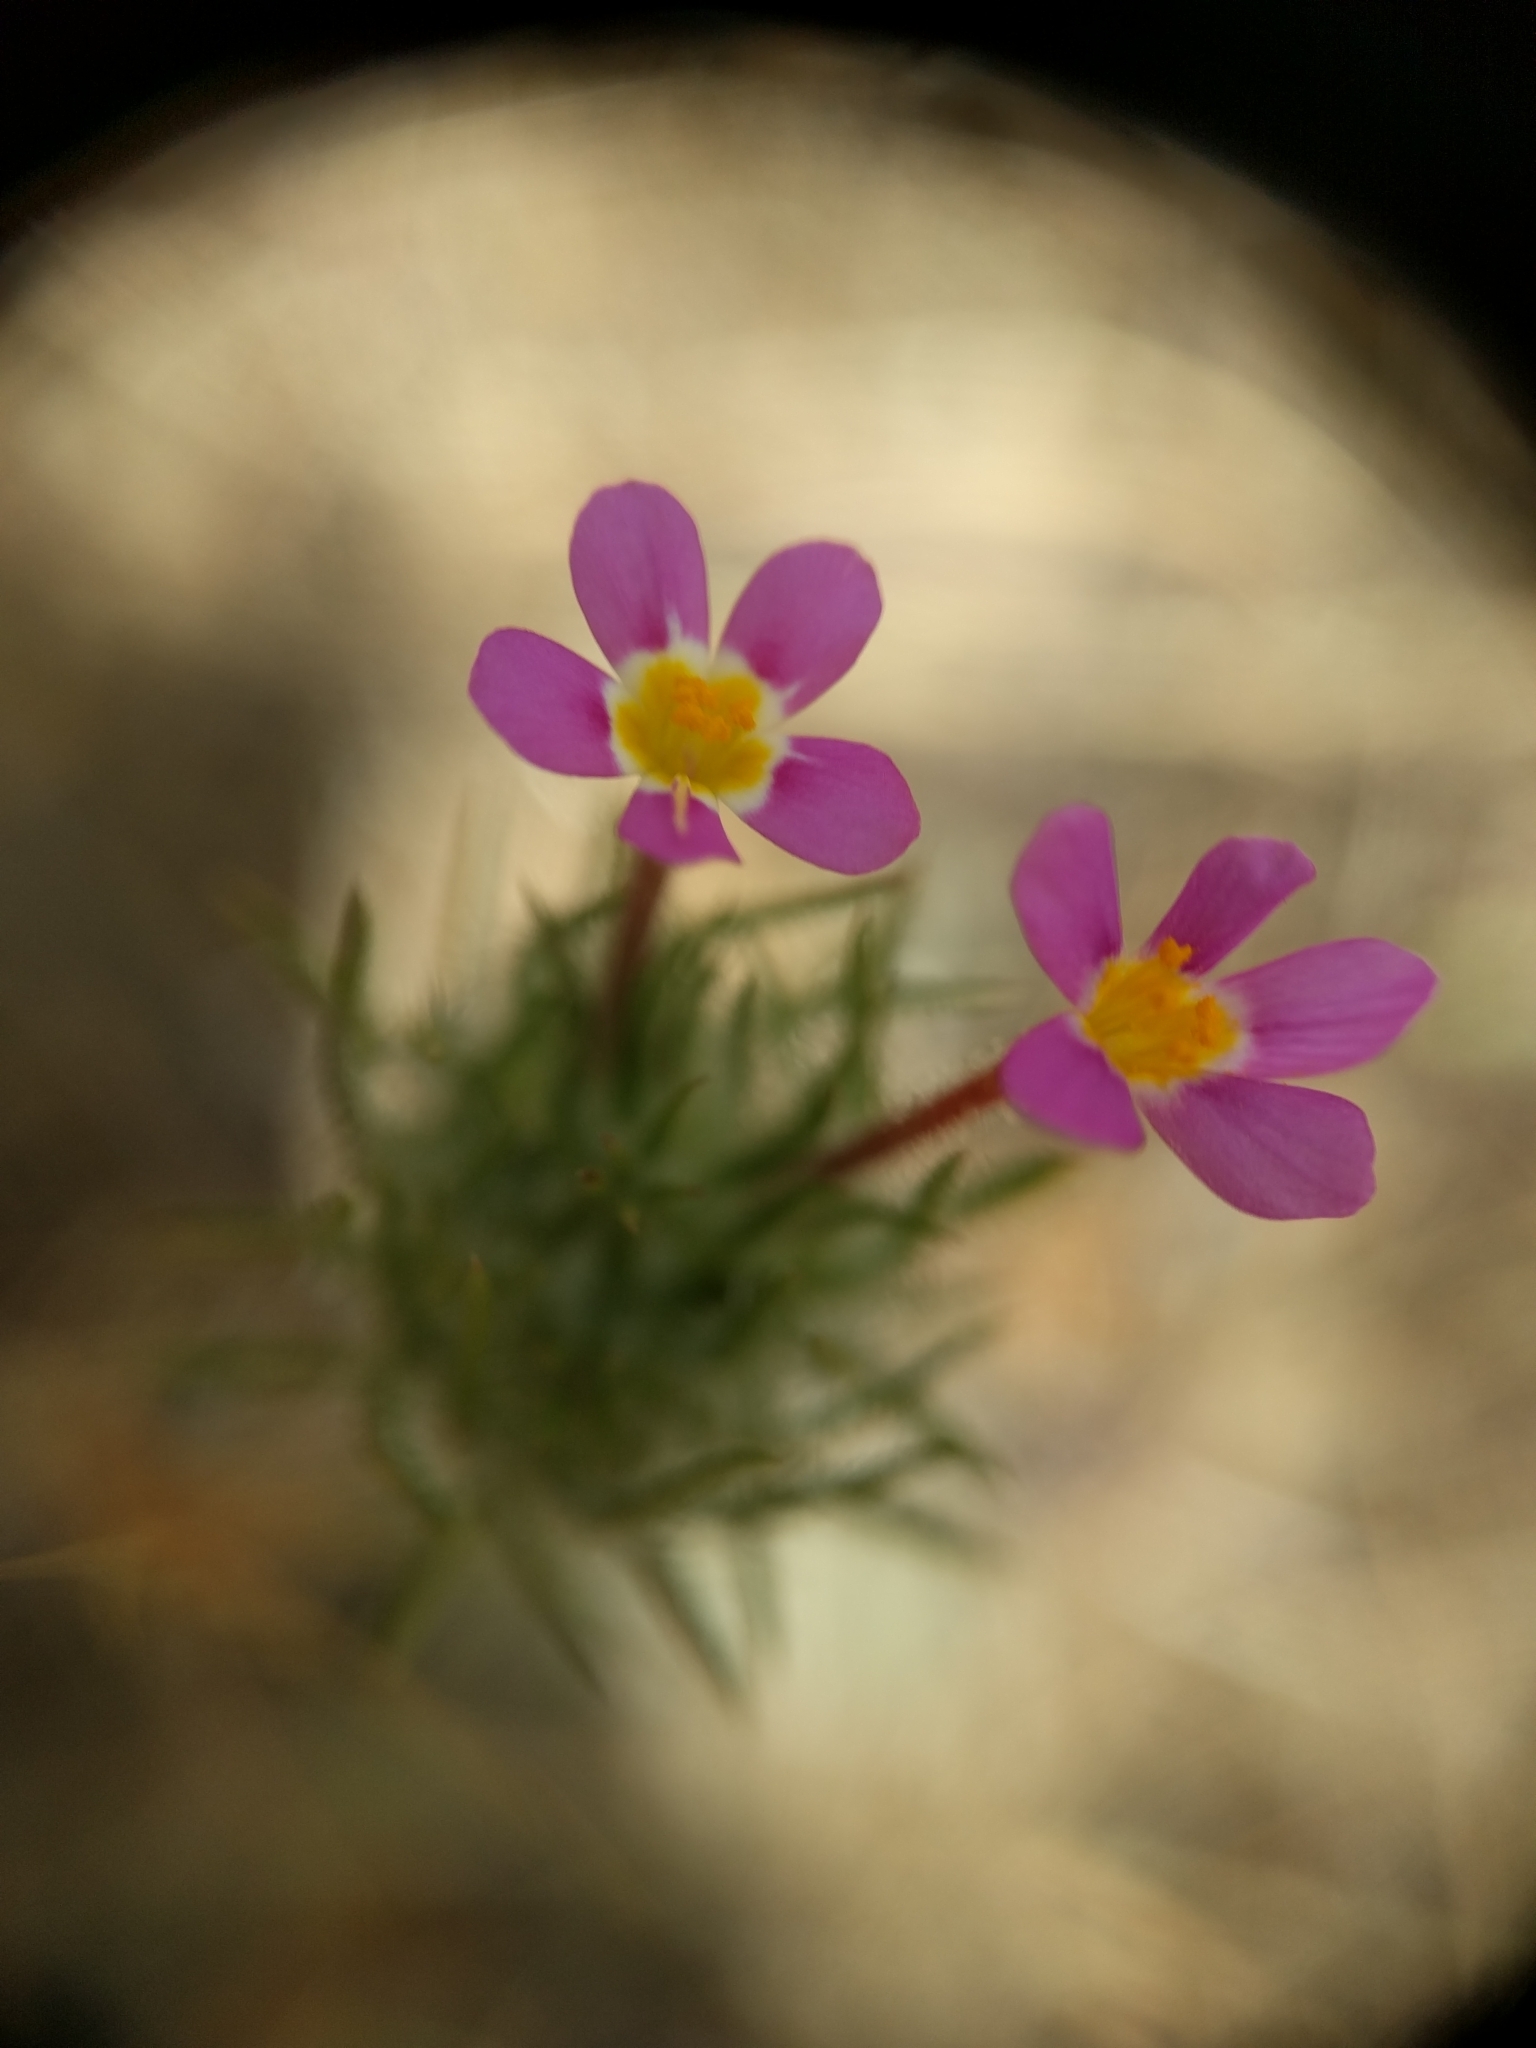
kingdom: Plantae
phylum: Tracheophyta
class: Magnoliopsida
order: Ericales
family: Polemoniaceae
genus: Leptosiphon
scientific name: Leptosiphon ciliatus
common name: Whiskerbrush
